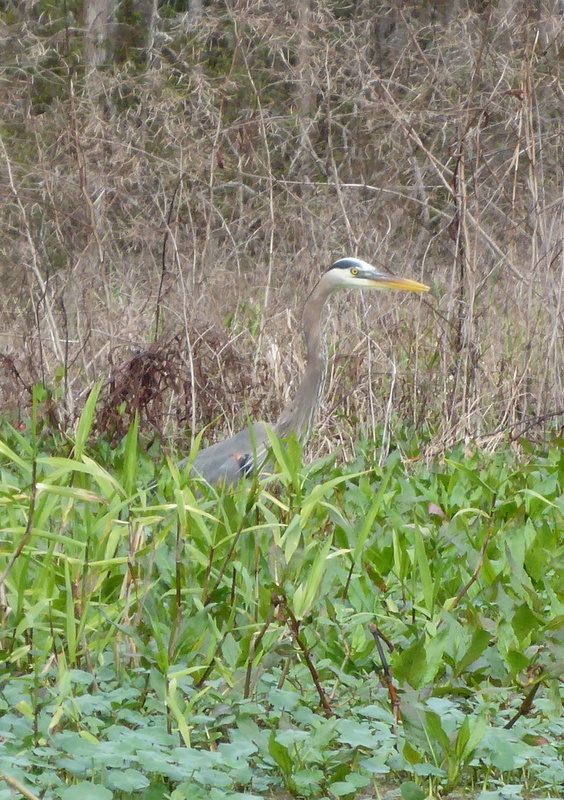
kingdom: Animalia
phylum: Chordata
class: Aves
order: Pelecaniformes
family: Ardeidae
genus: Ardea
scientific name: Ardea herodias
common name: Great blue heron
